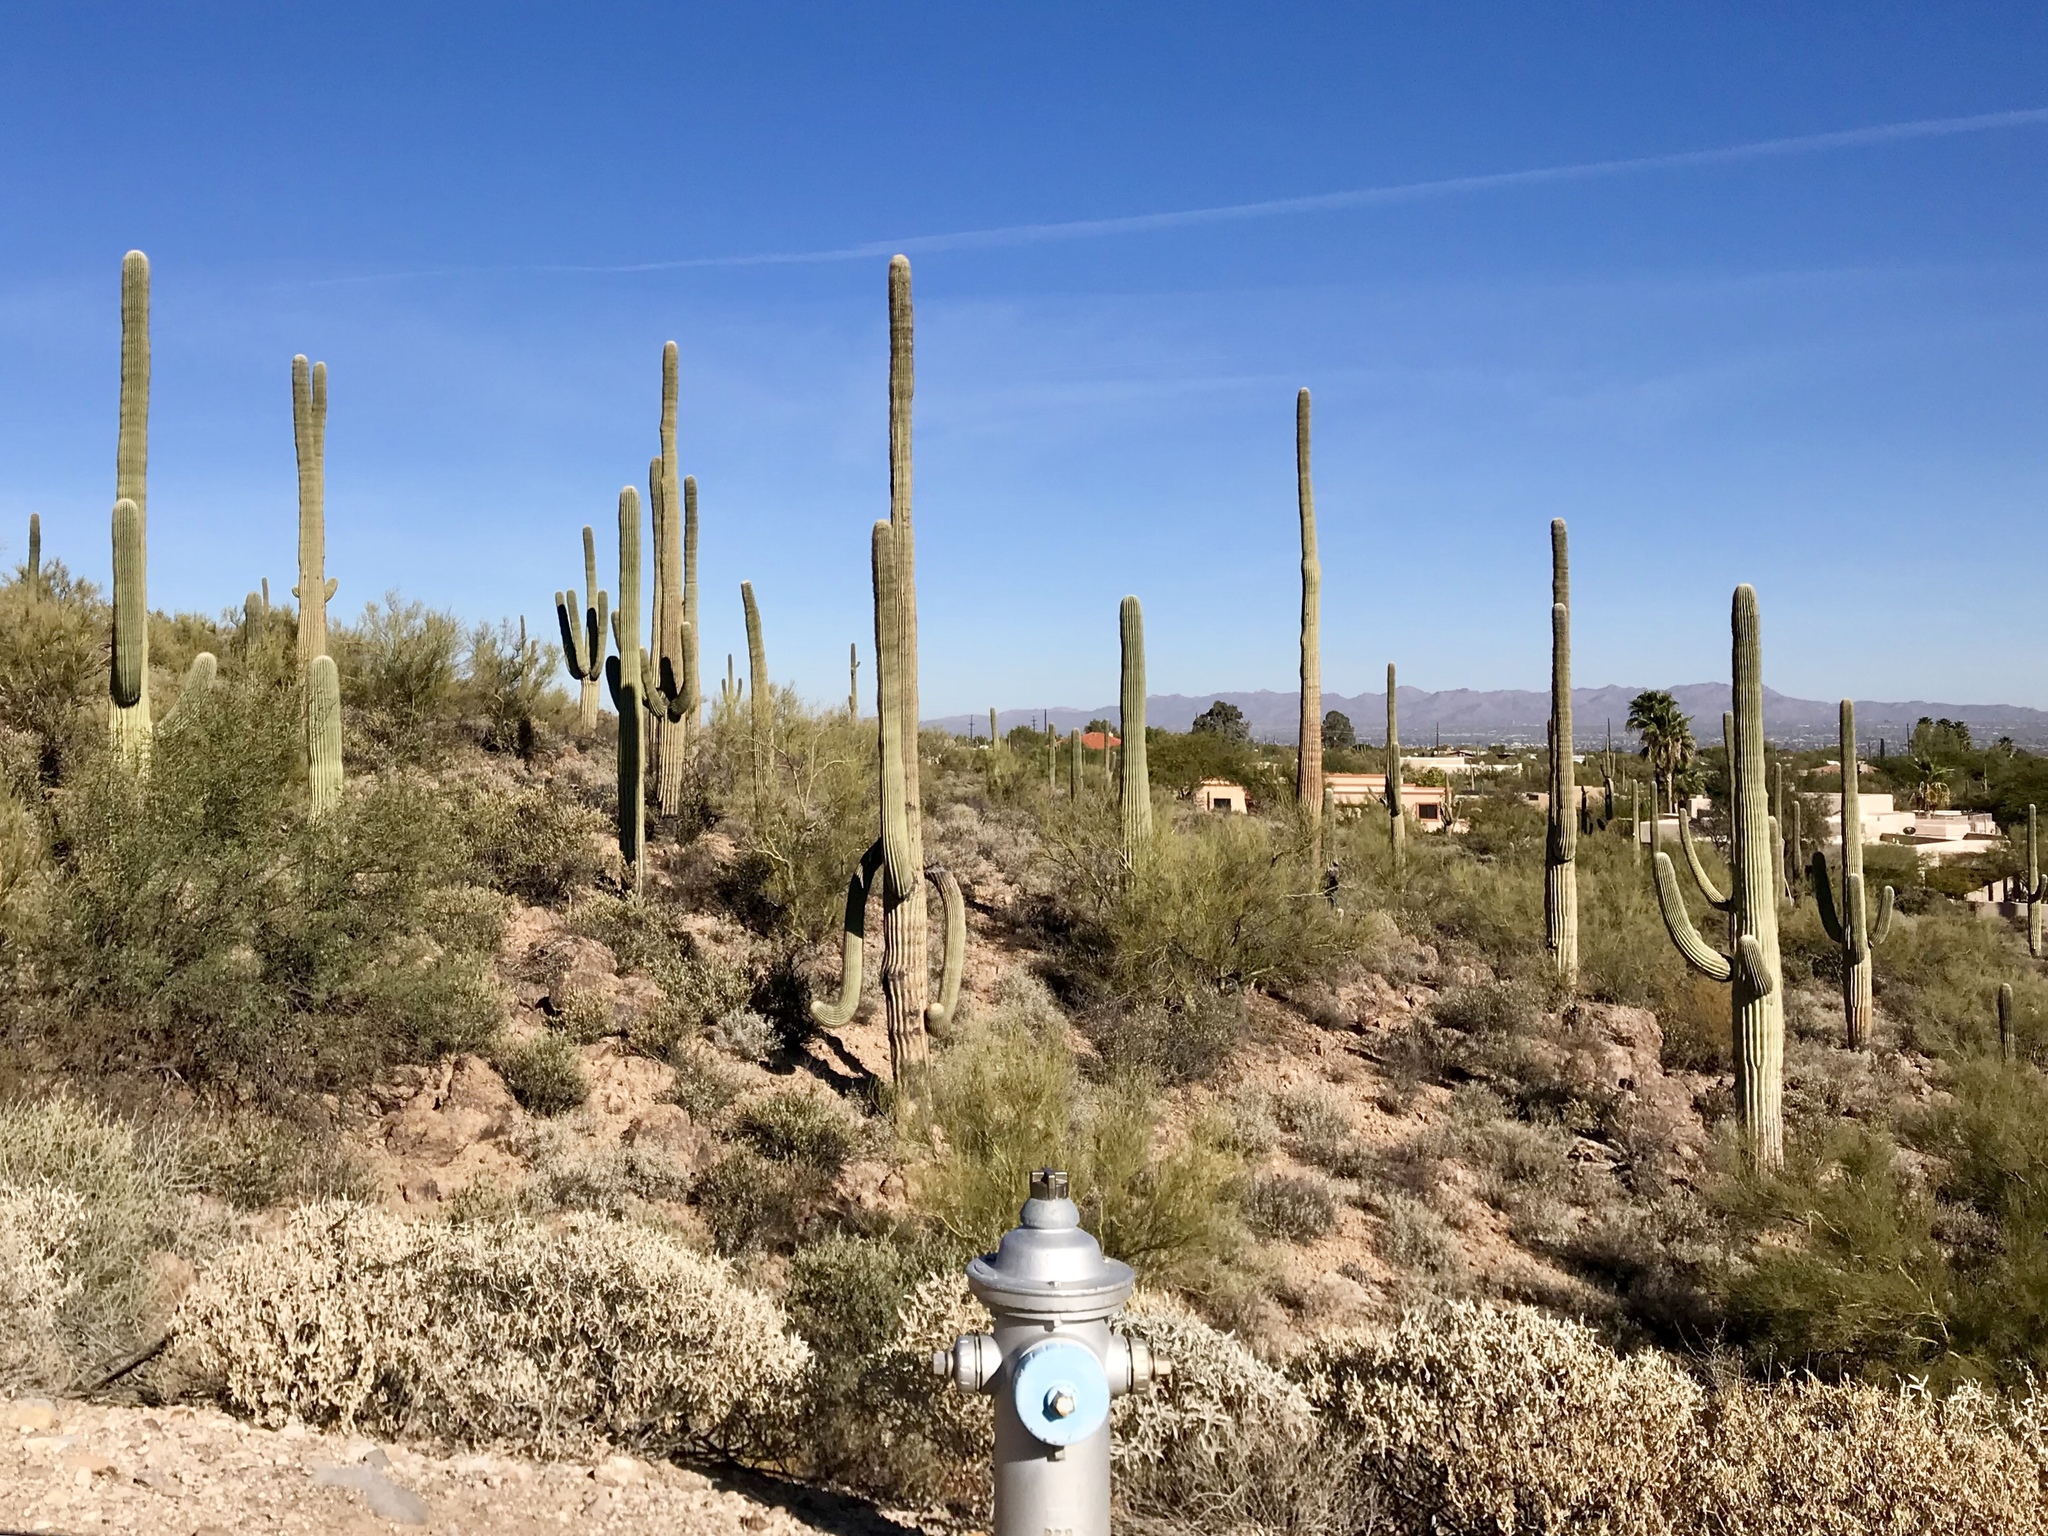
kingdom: Plantae
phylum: Tracheophyta
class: Magnoliopsida
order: Caryophyllales
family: Cactaceae
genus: Carnegiea
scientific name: Carnegiea gigantea
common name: Saguaro
